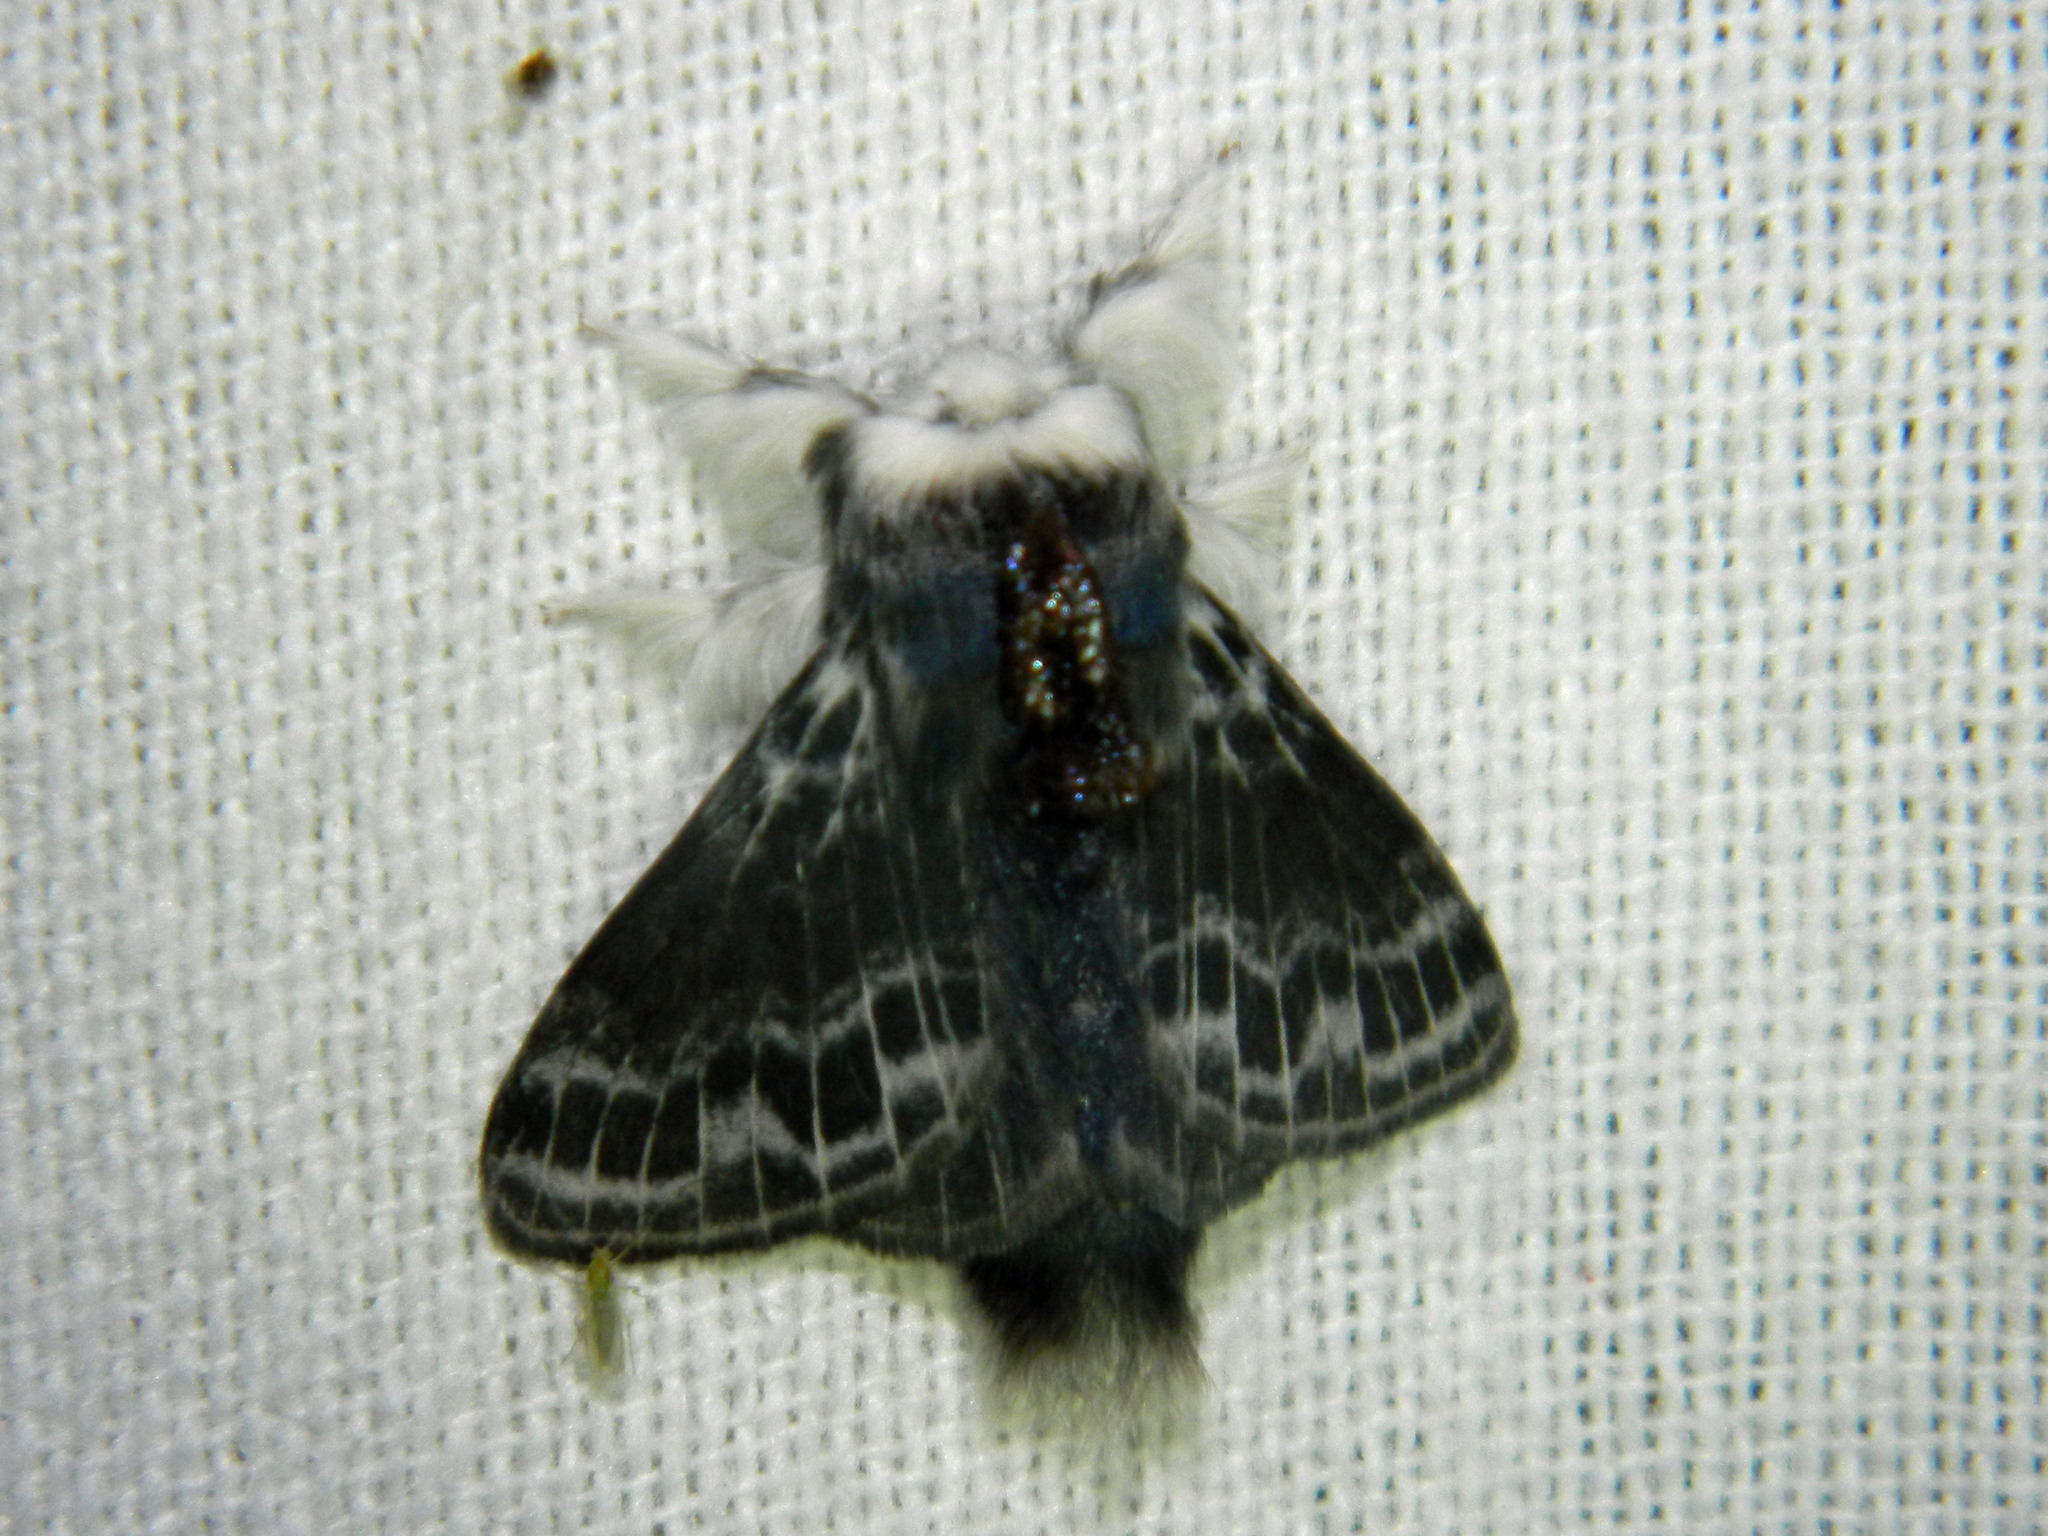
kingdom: Animalia
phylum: Arthropoda
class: Insecta
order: Lepidoptera
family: Lasiocampidae
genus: Tolype
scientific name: Tolype laricis
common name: Larch tolype moth
